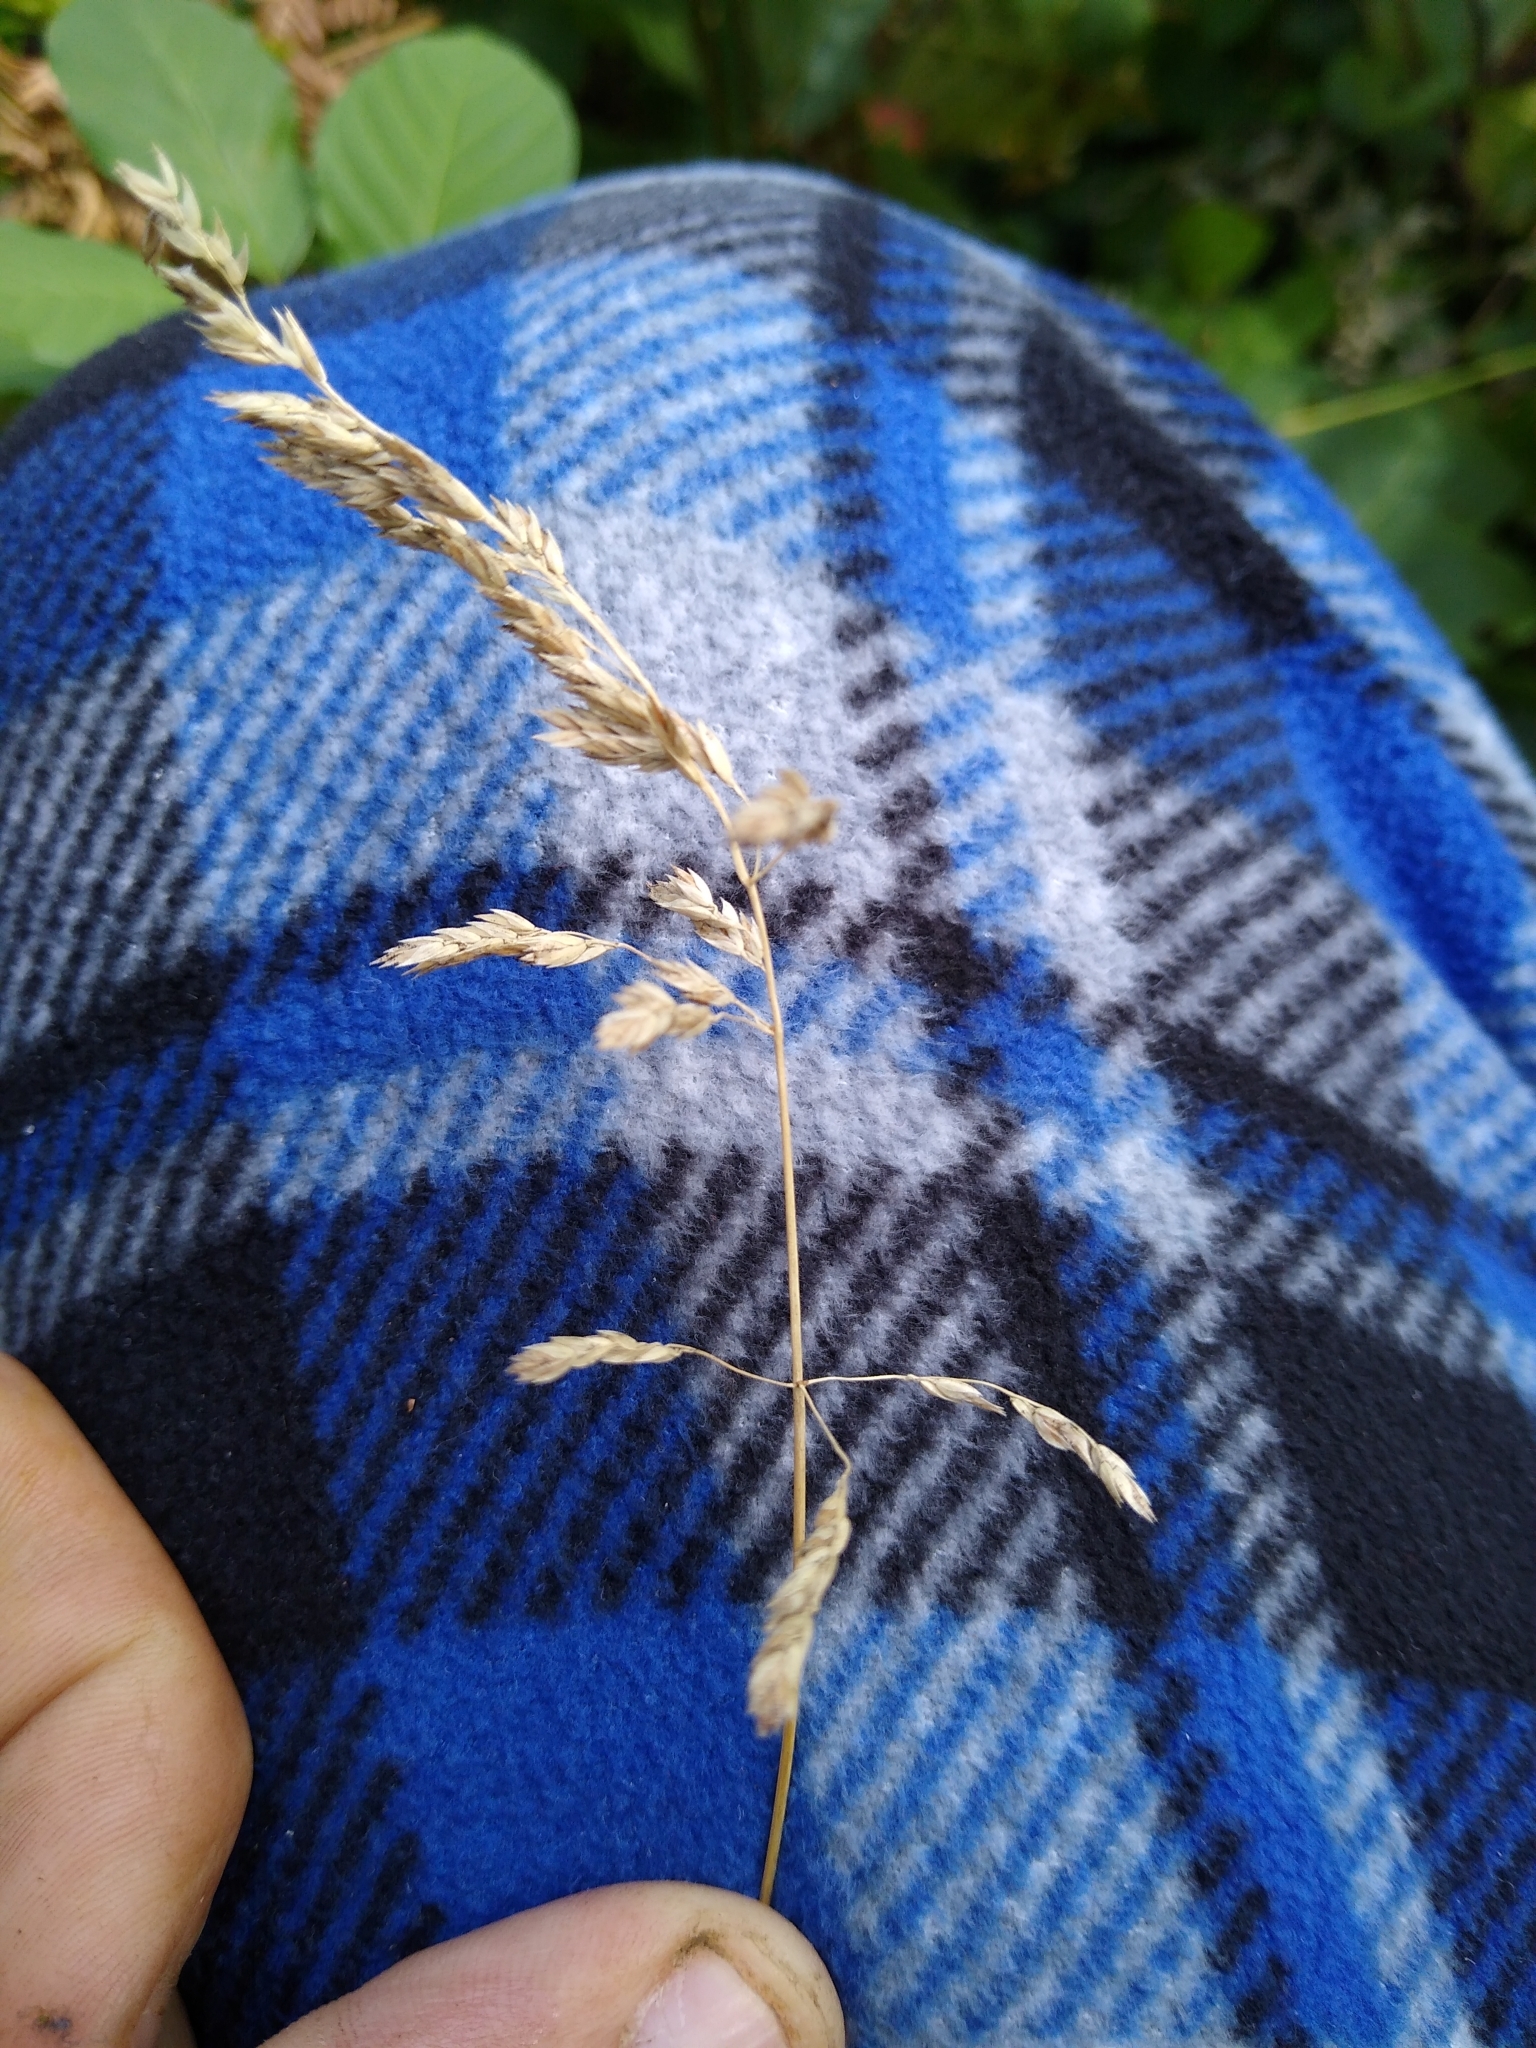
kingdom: Plantae
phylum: Tracheophyta
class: Liliopsida
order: Poales
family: Poaceae
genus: Poa
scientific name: Poa pratensis
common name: Kentucky bluegrass
